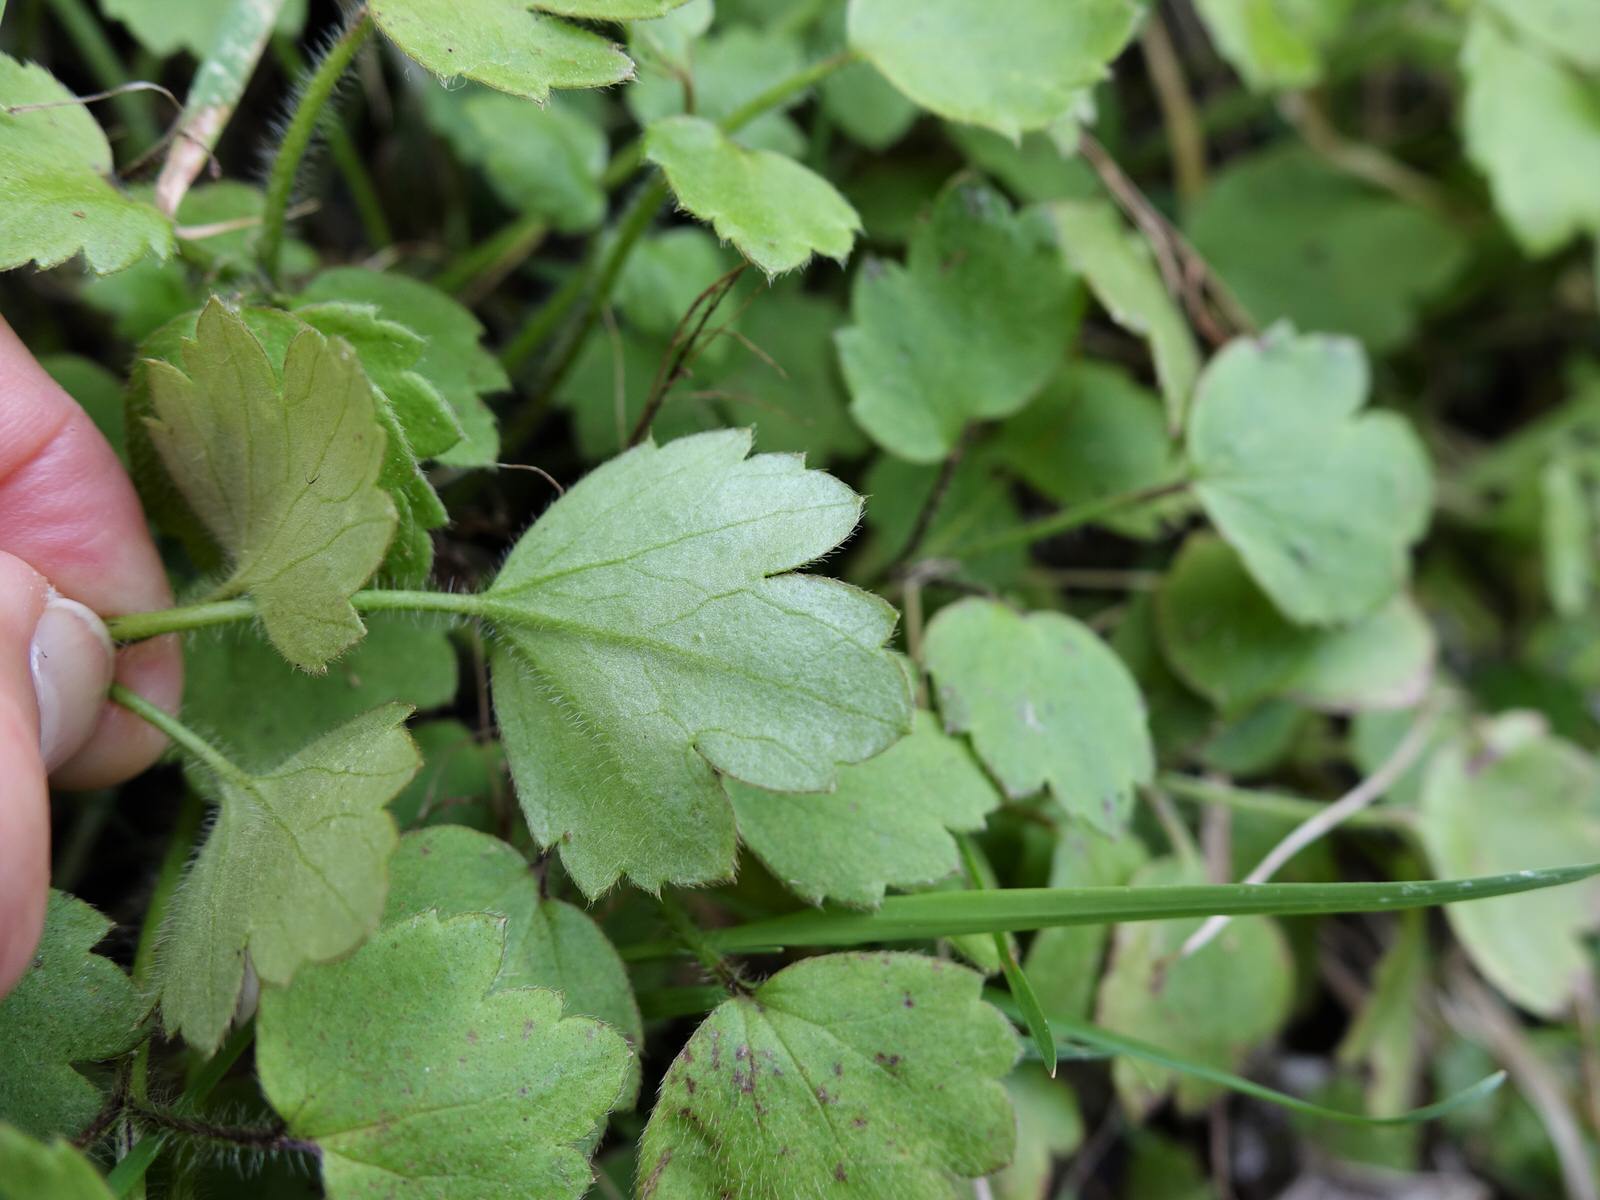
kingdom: Plantae
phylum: Tracheophyta
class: Magnoliopsida
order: Ranunculales
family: Ranunculaceae
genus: Ranunculus
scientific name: Ranunculus reflexus
